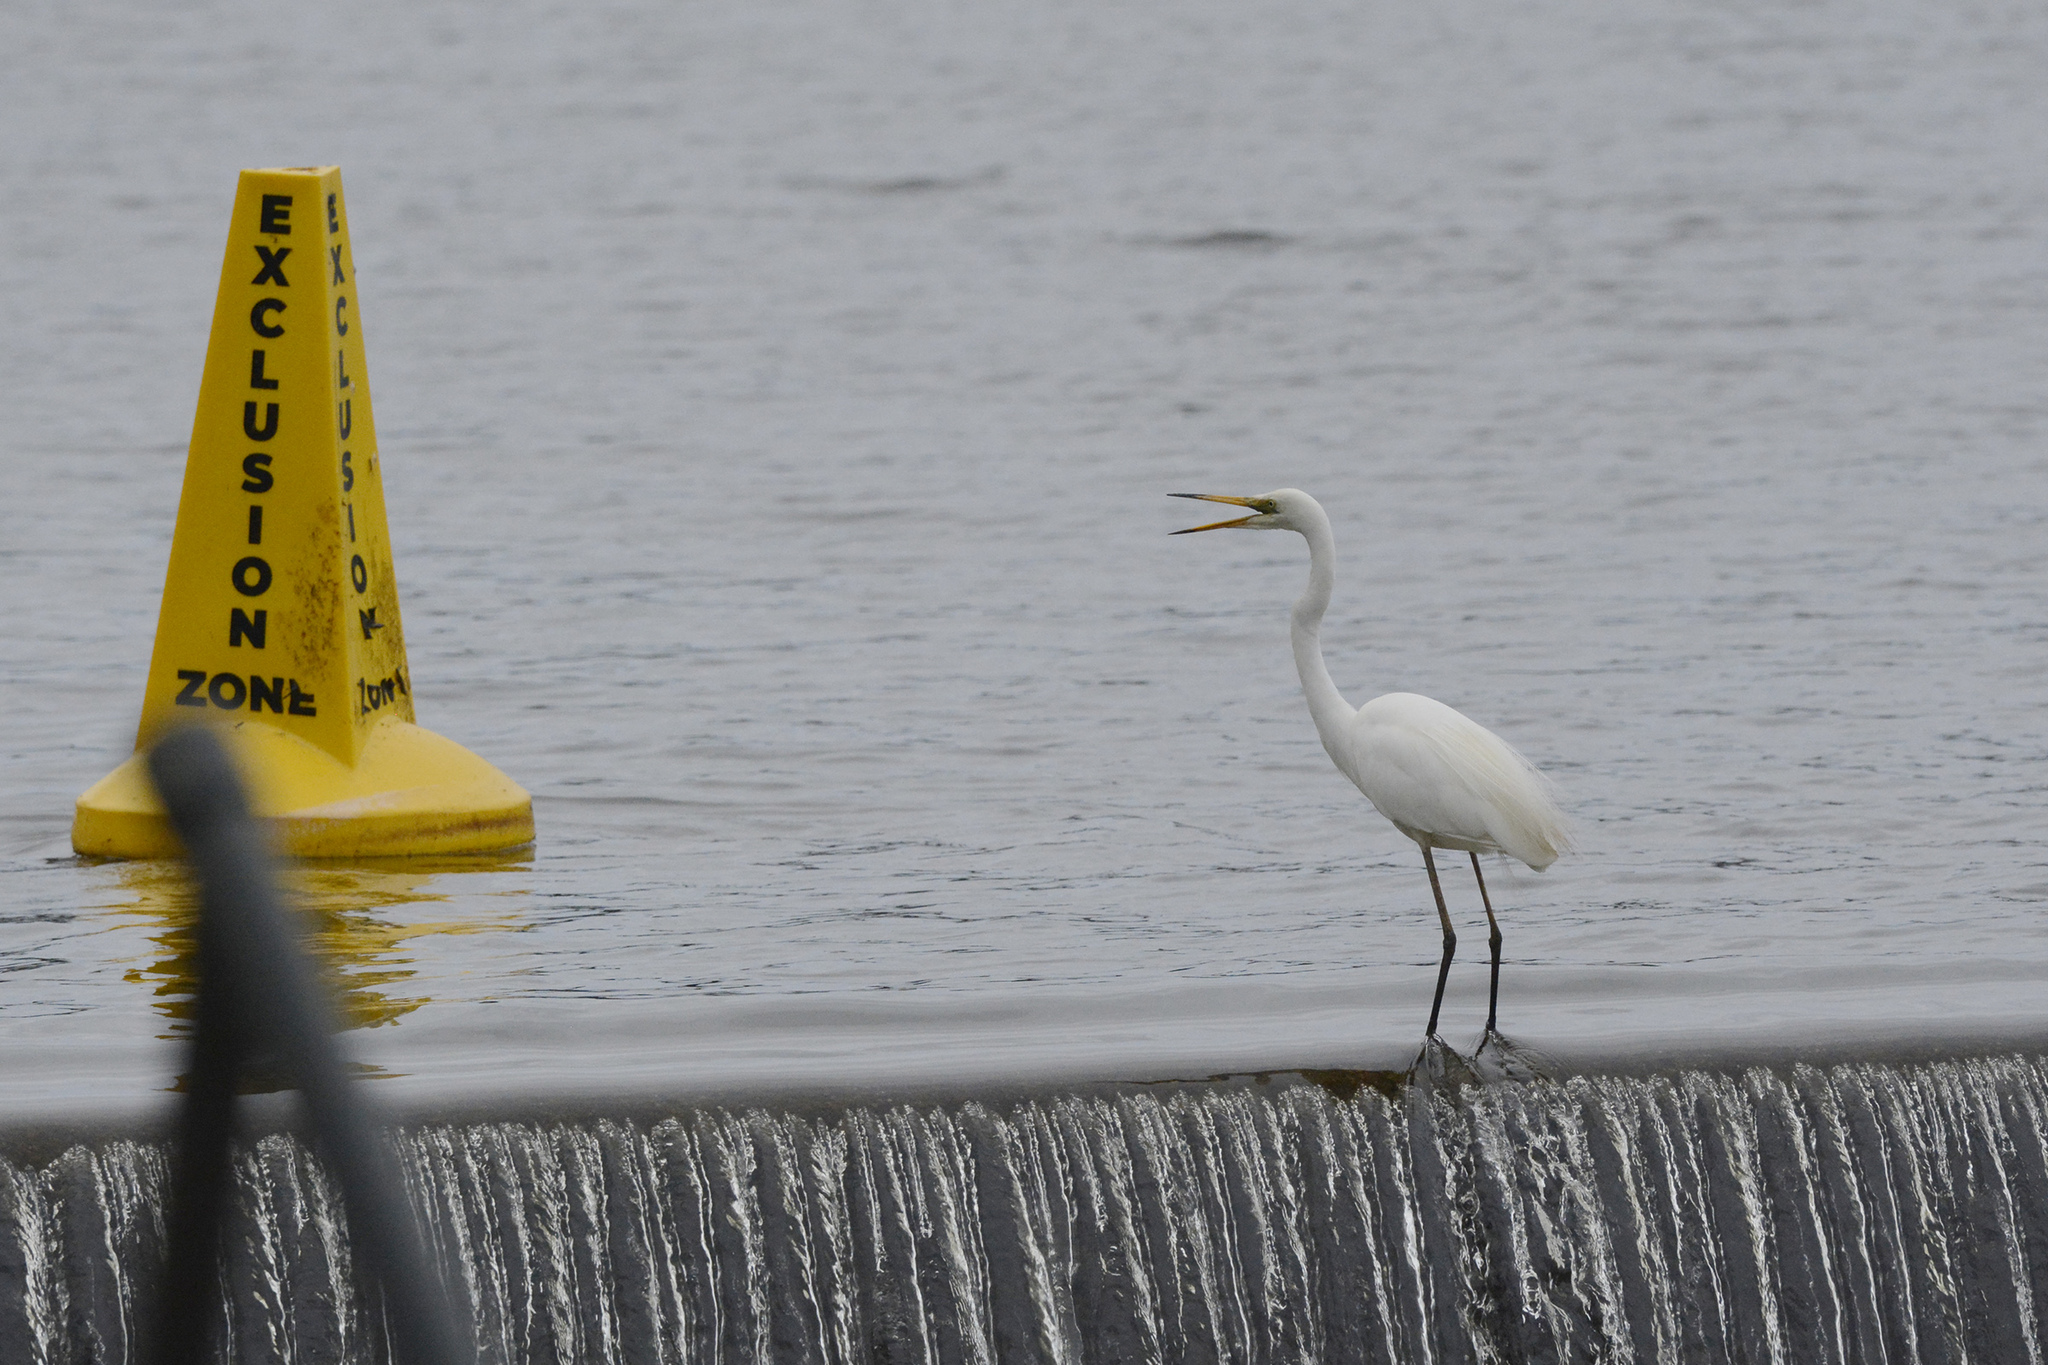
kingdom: Animalia
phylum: Chordata
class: Aves
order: Pelecaniformes
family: Ardeidae
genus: Ardea
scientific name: Ardea alba
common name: Great egret
